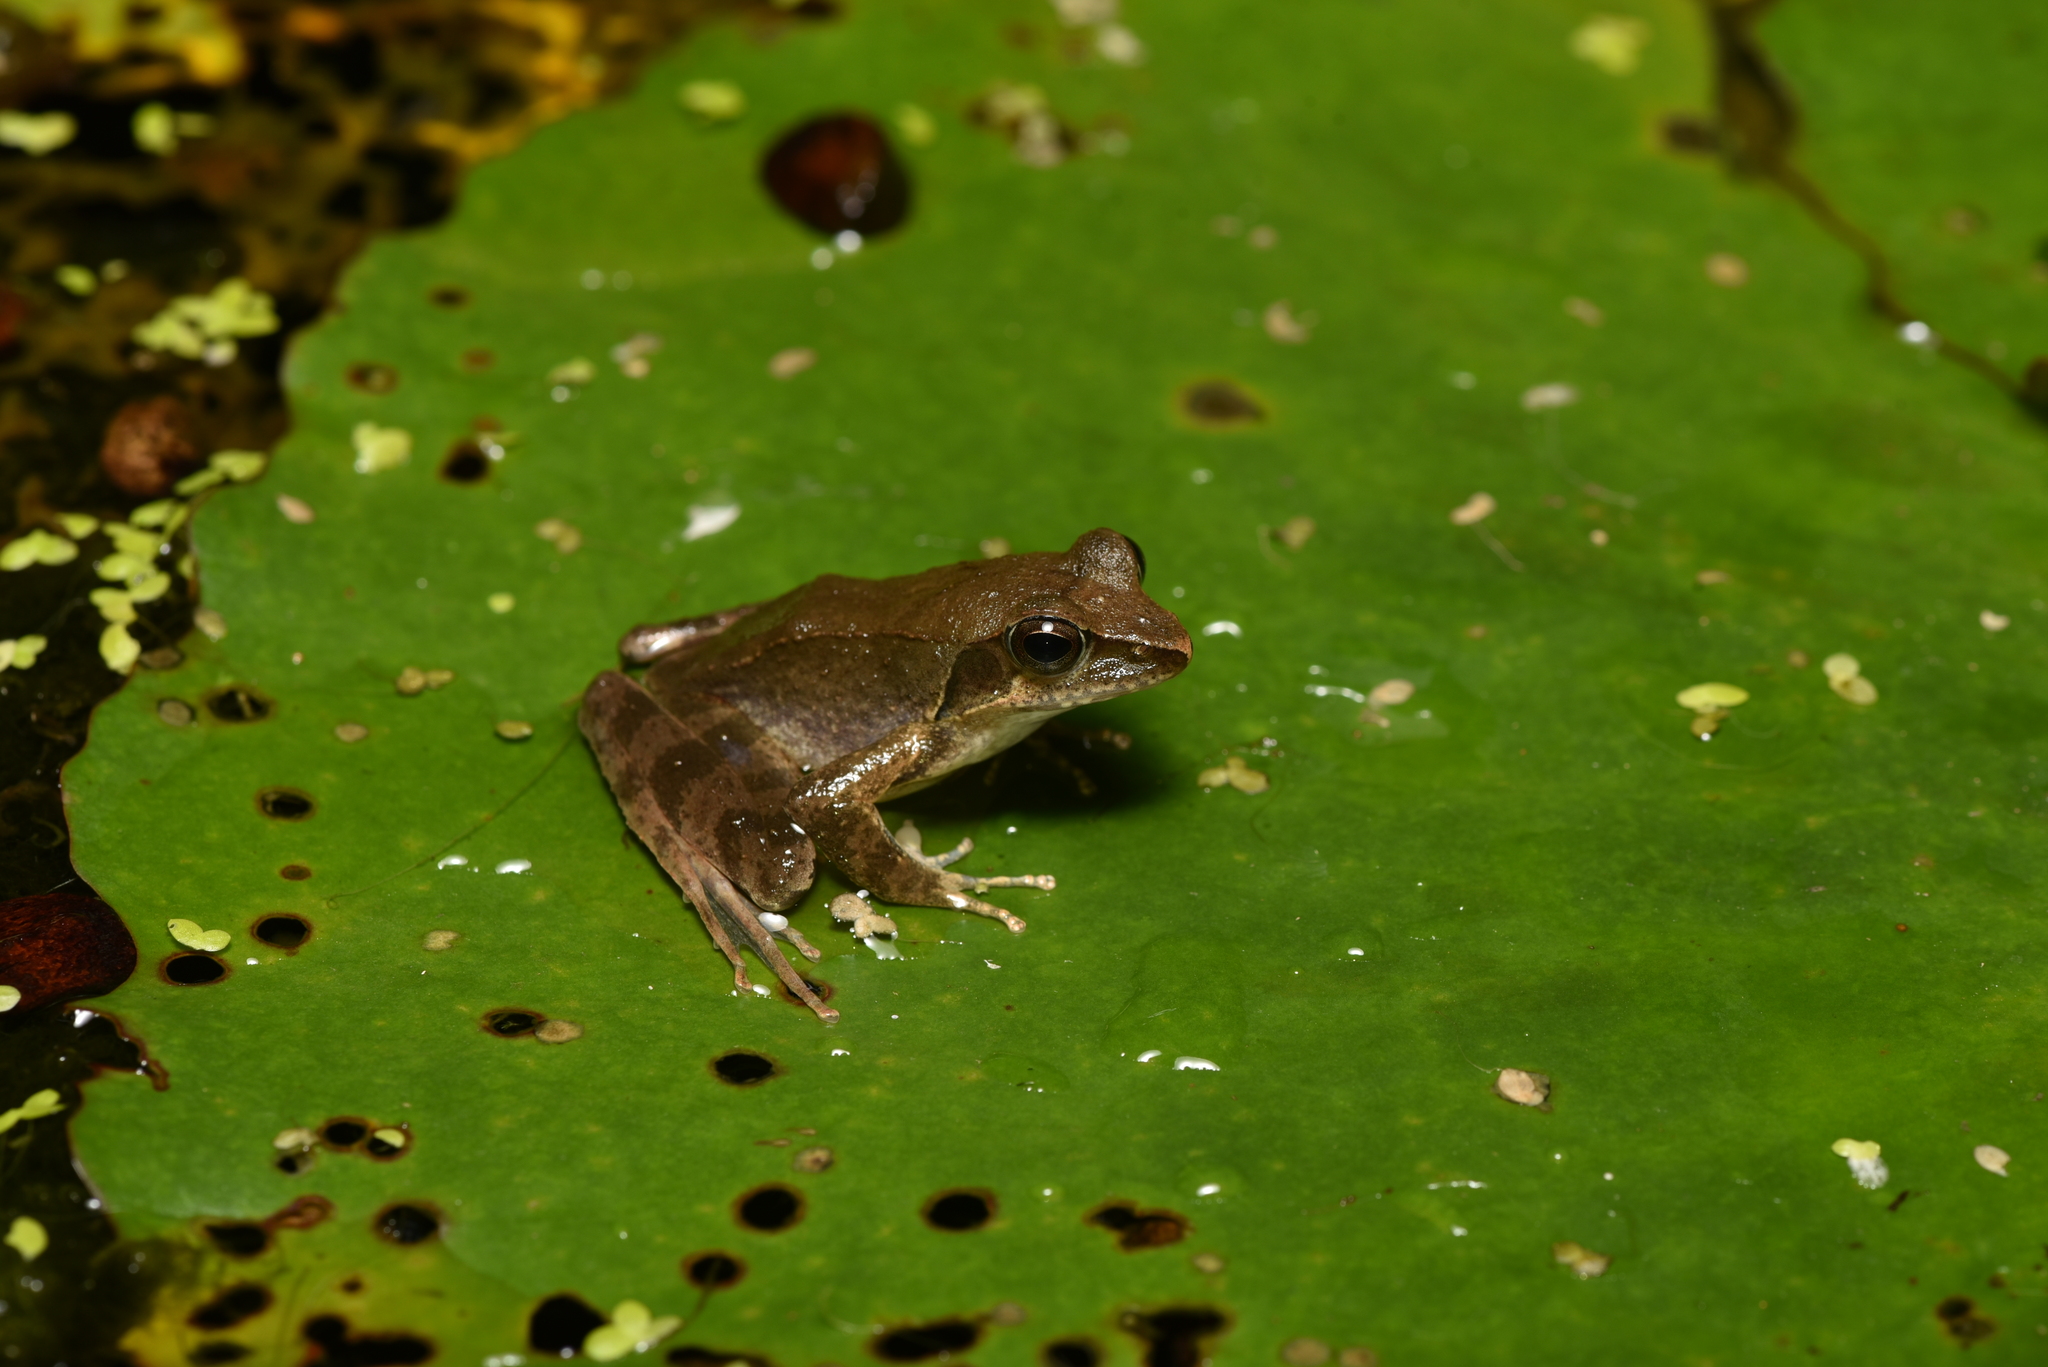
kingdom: Animalia
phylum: Chordata
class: Amphibia
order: Anura
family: Ranidae
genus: Rana
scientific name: Rana sauteri
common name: Kanshirei village frog
